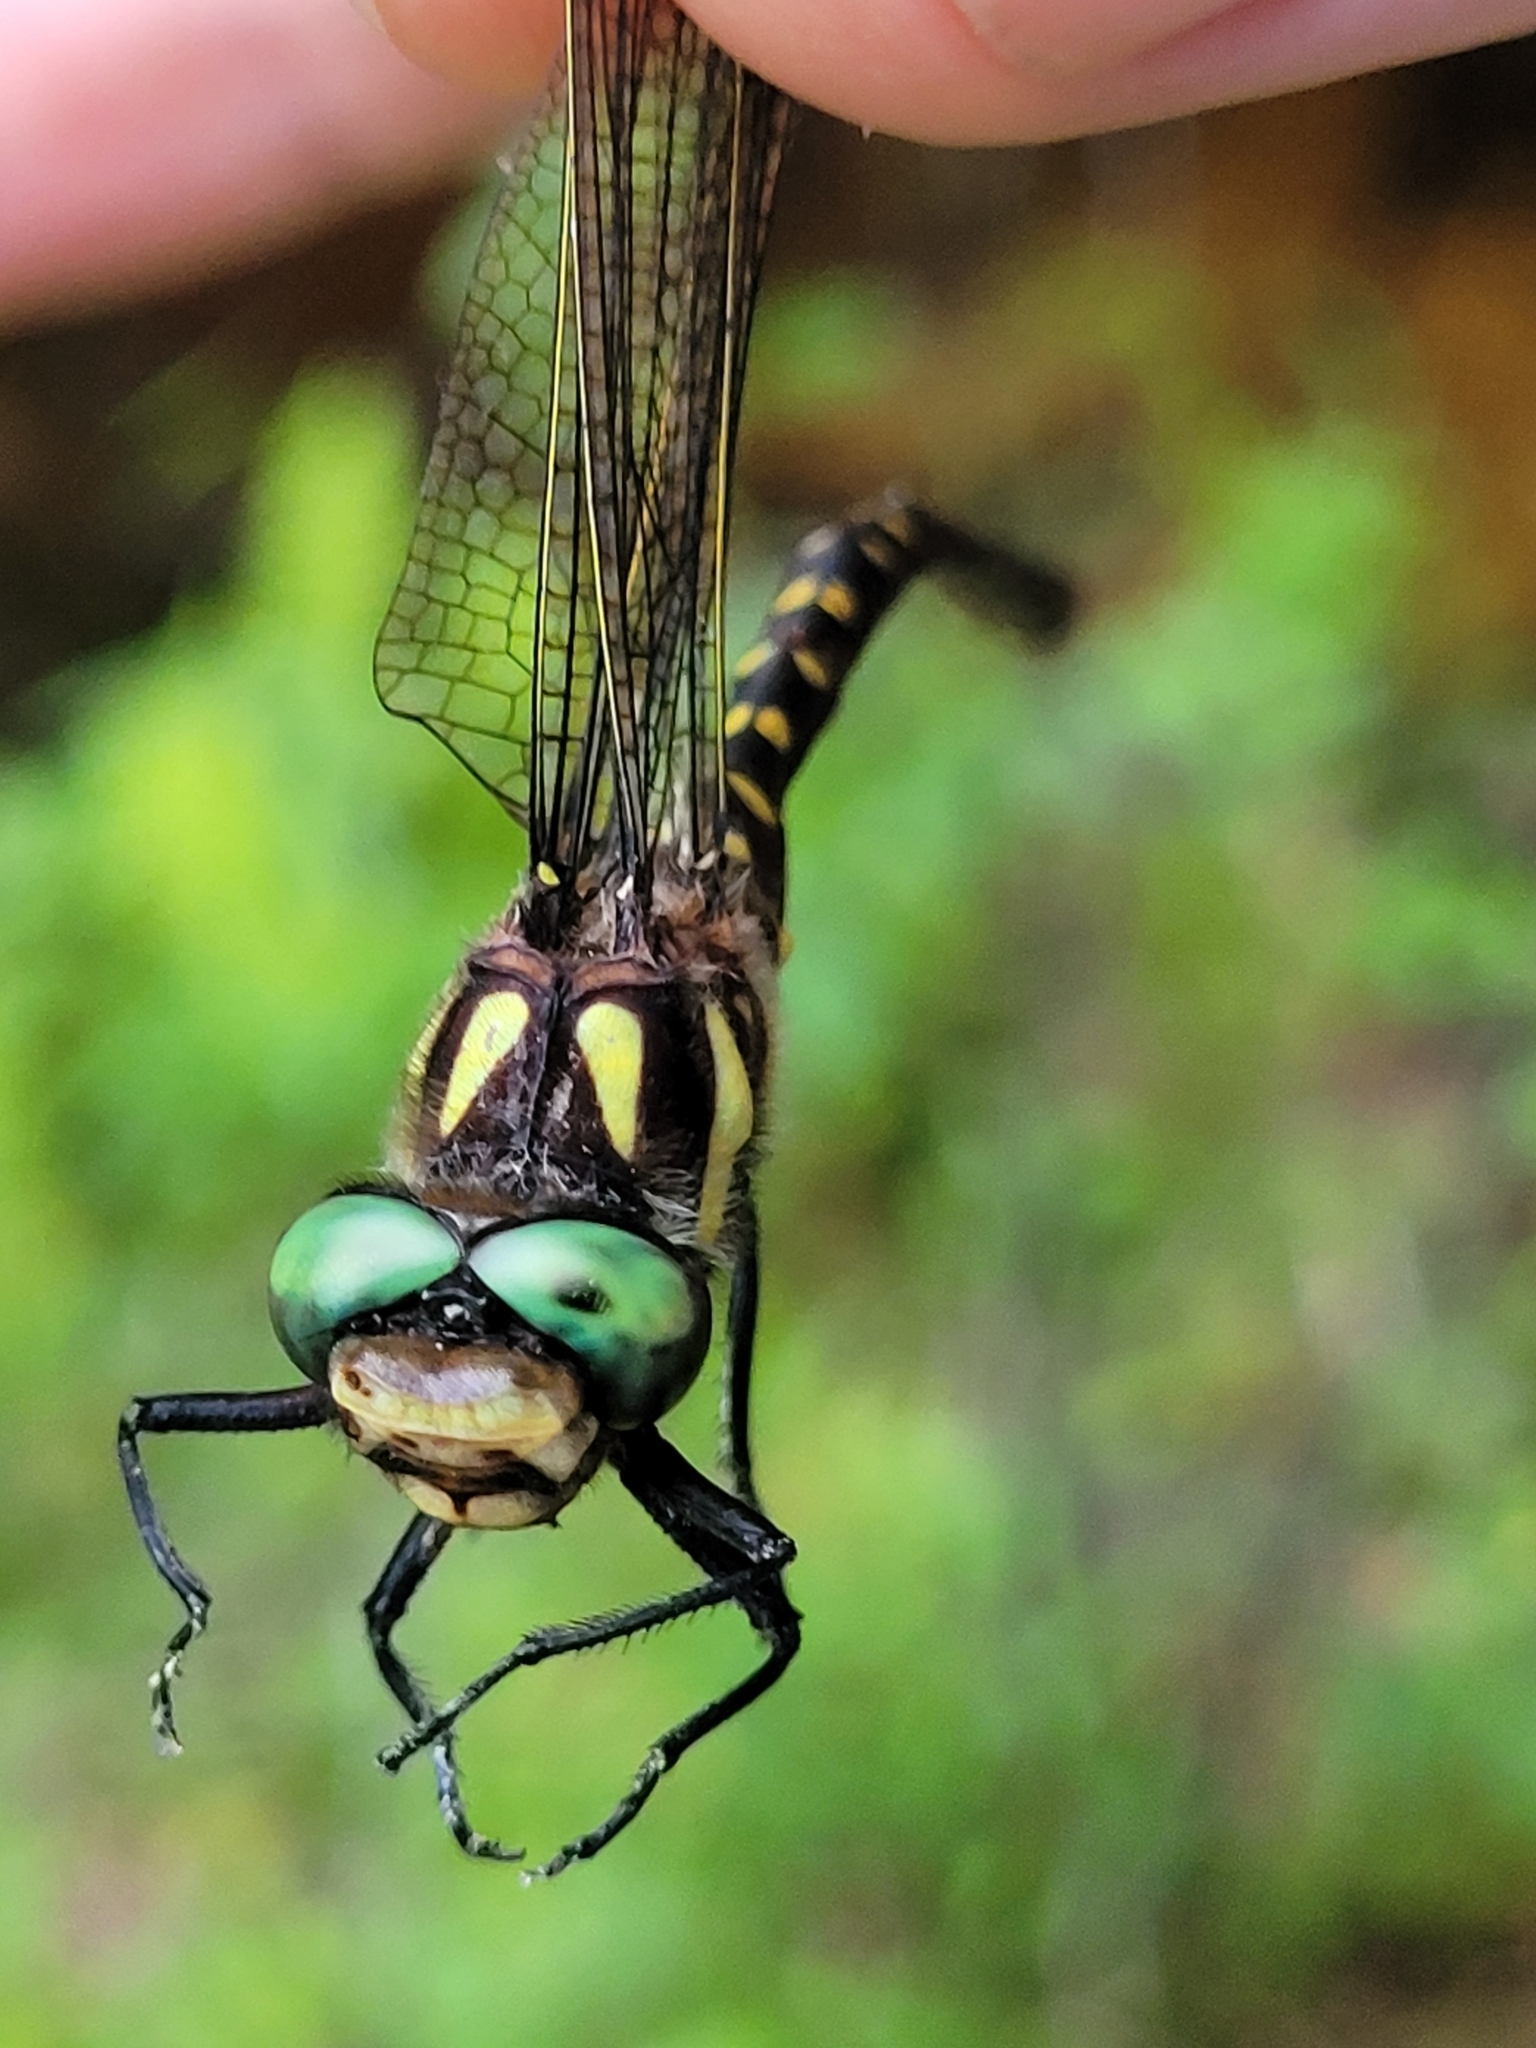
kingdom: Animalia
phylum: Arthropoda
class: Insecta
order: Odonata
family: Cordulegastridae
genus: Cordulegaster
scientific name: Cordulegaster maculata
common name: Twin-spotted spiketail
